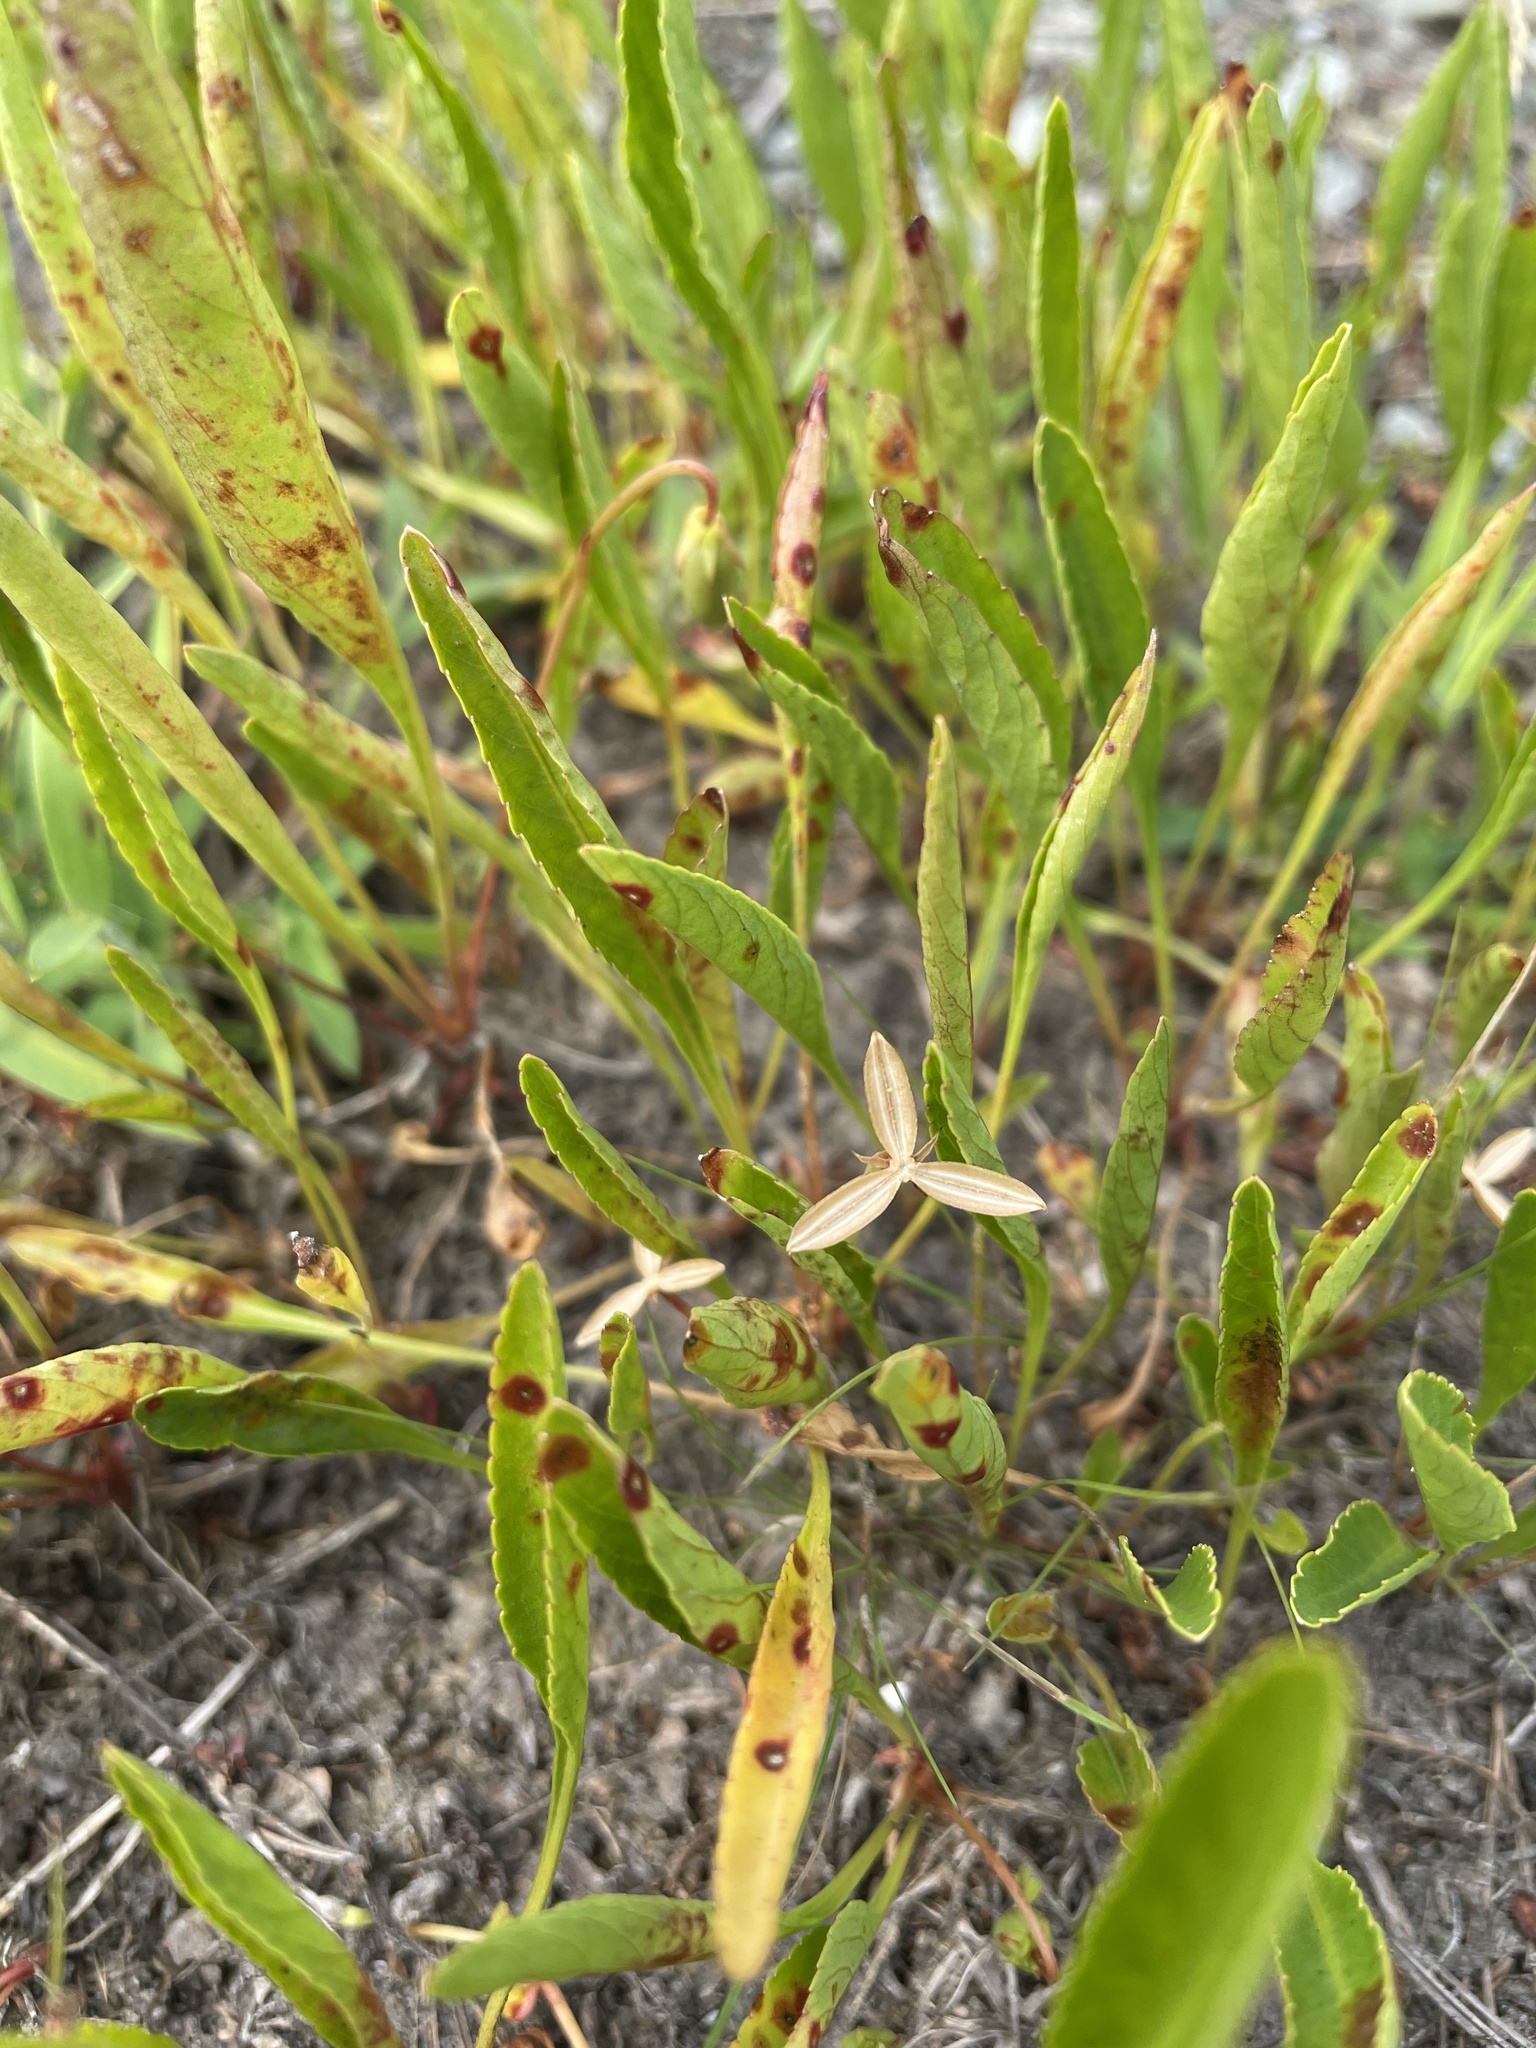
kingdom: Plantae
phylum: Tracheophyta
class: Magnoliopsida
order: Malpighiales
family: Violaceae
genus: Viola
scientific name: Viola lanceolata
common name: Bog white violet
